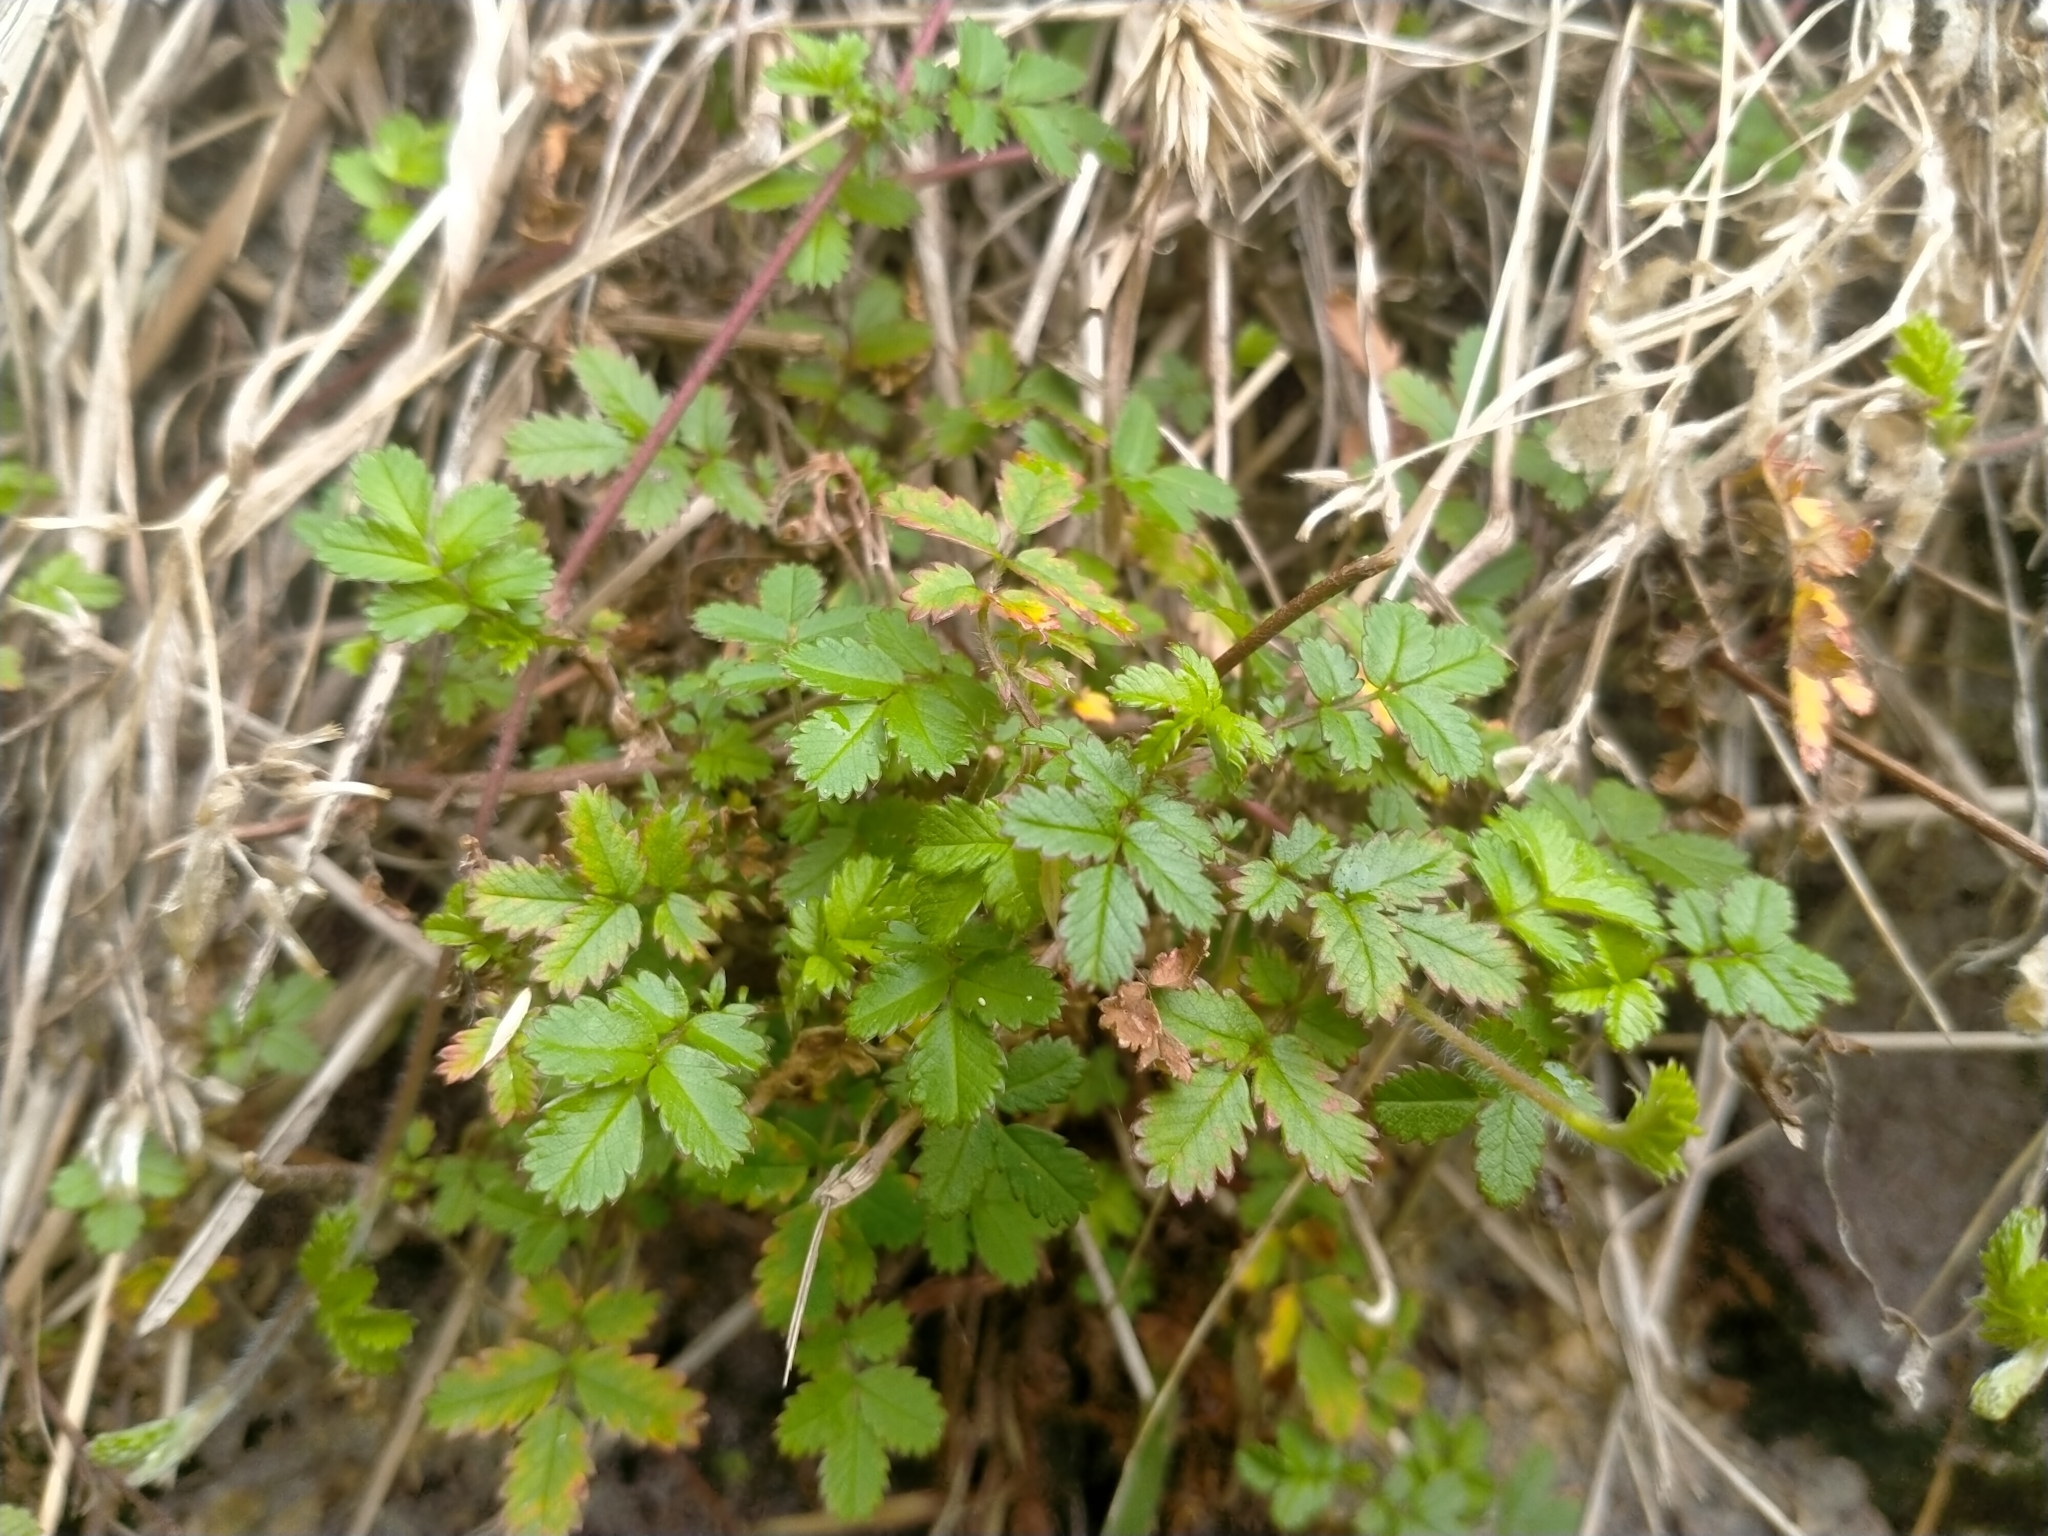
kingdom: Plantae
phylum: Tracheophyta
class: Magnoliopsida
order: Rosales
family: Rosaceae
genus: Acaena
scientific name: Acaena juvenca
